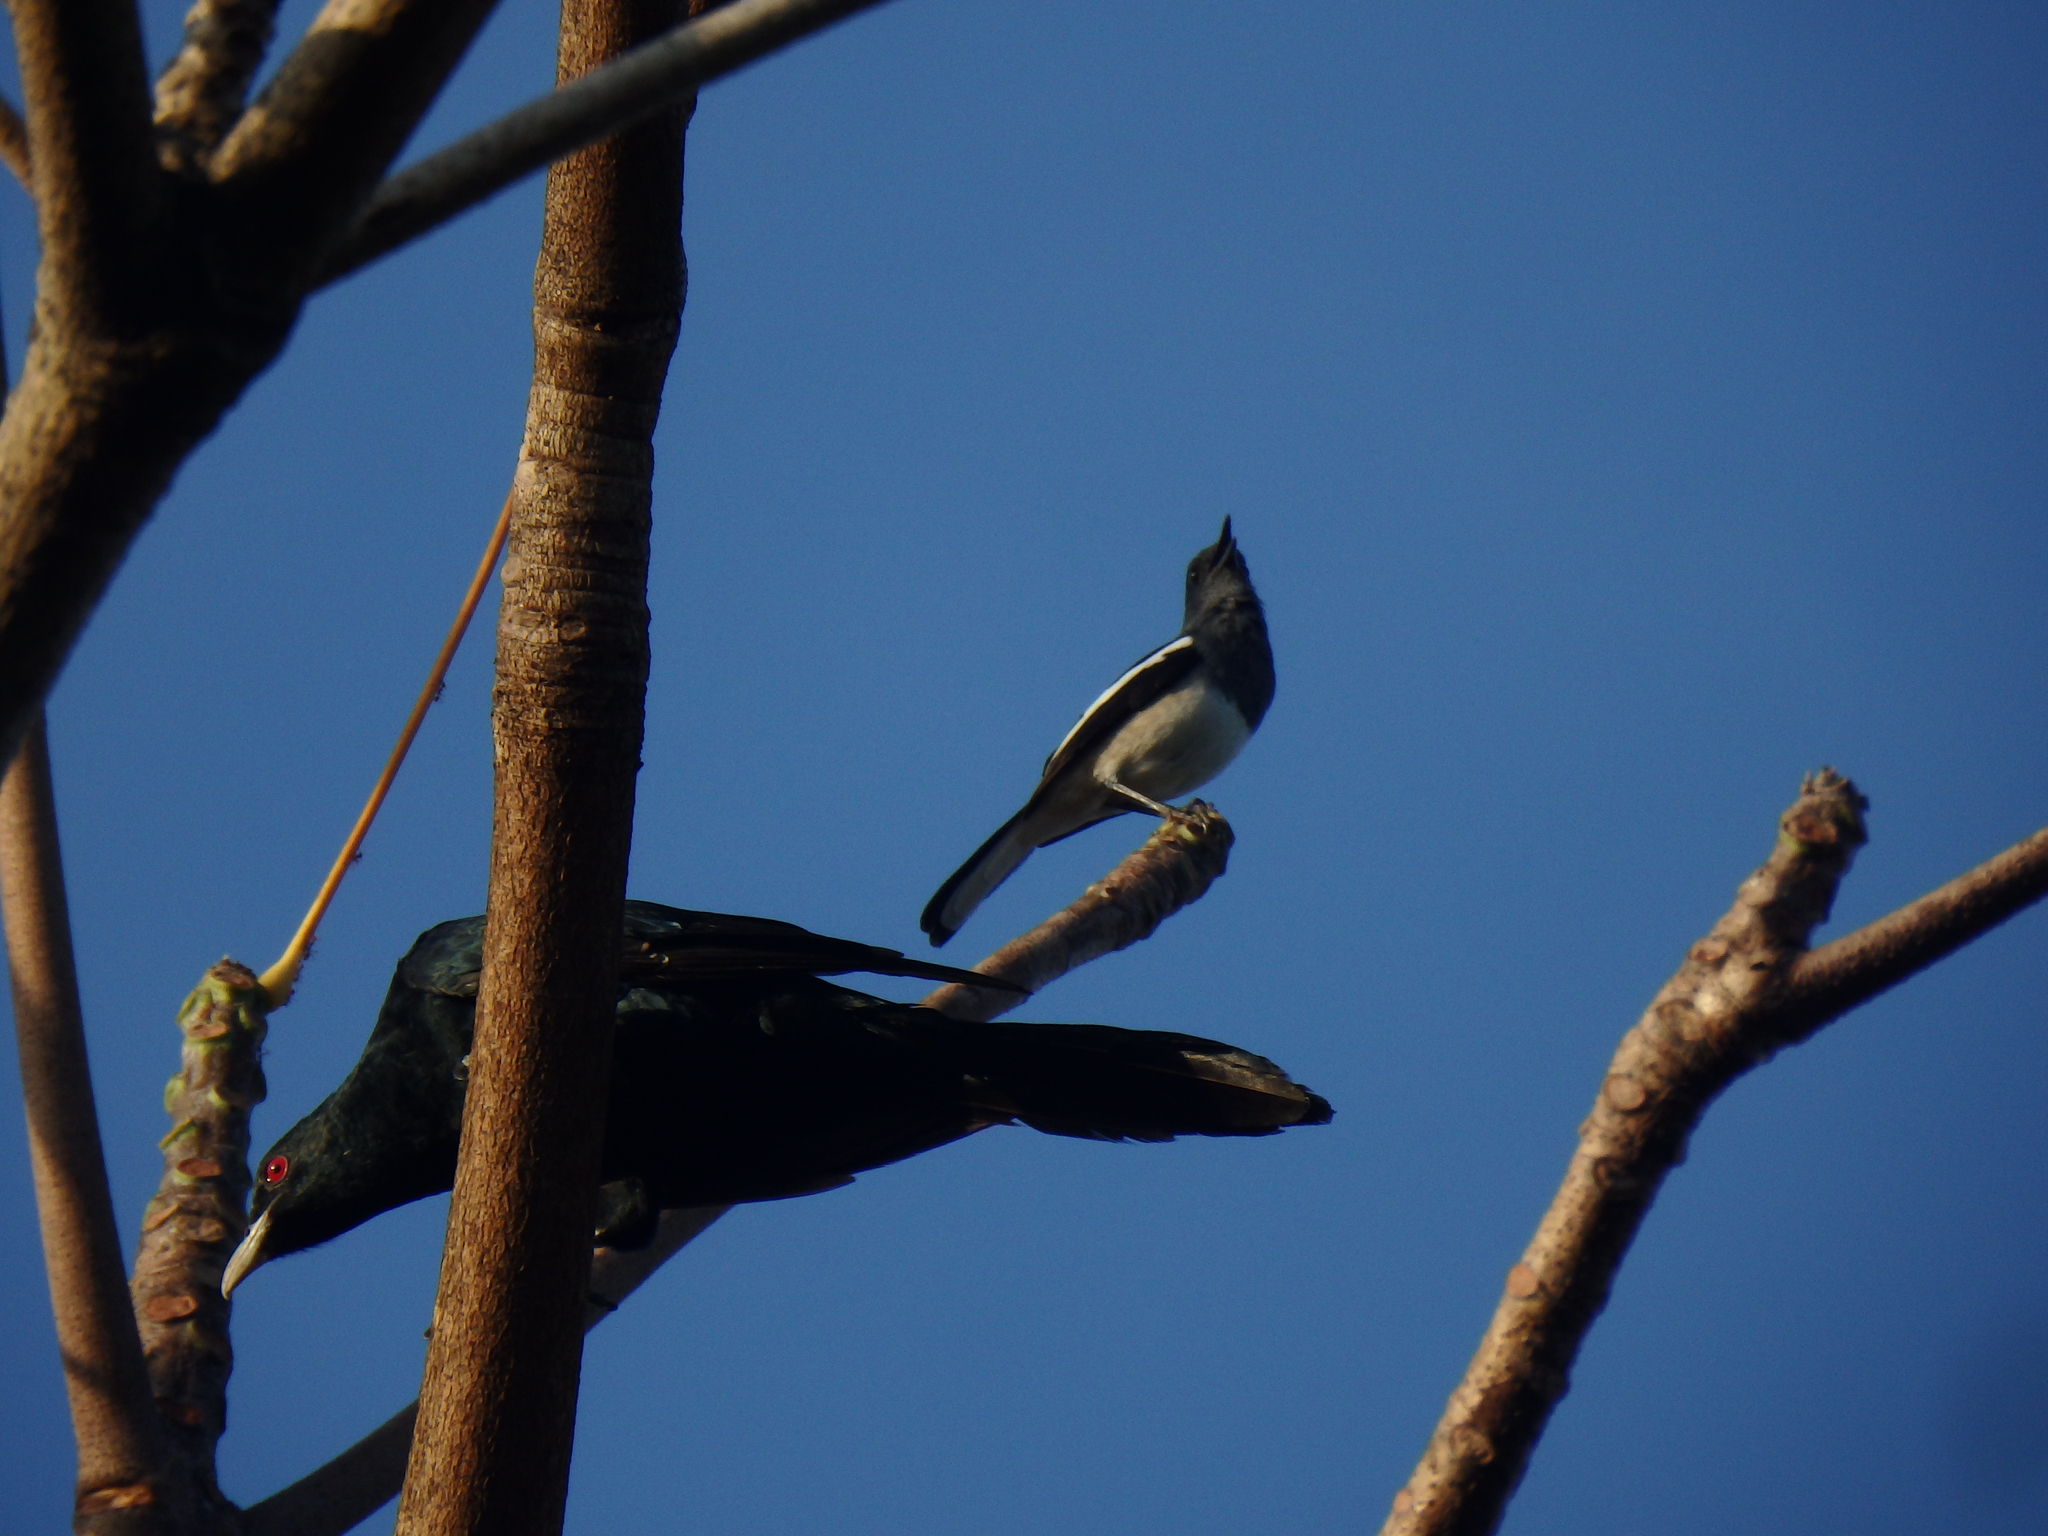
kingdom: Animalia
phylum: Chordata
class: Aves
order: Passeriformes
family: Muscicapidae
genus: Copsychus
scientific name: Copsychus saularis
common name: Oriental magpie-robin
